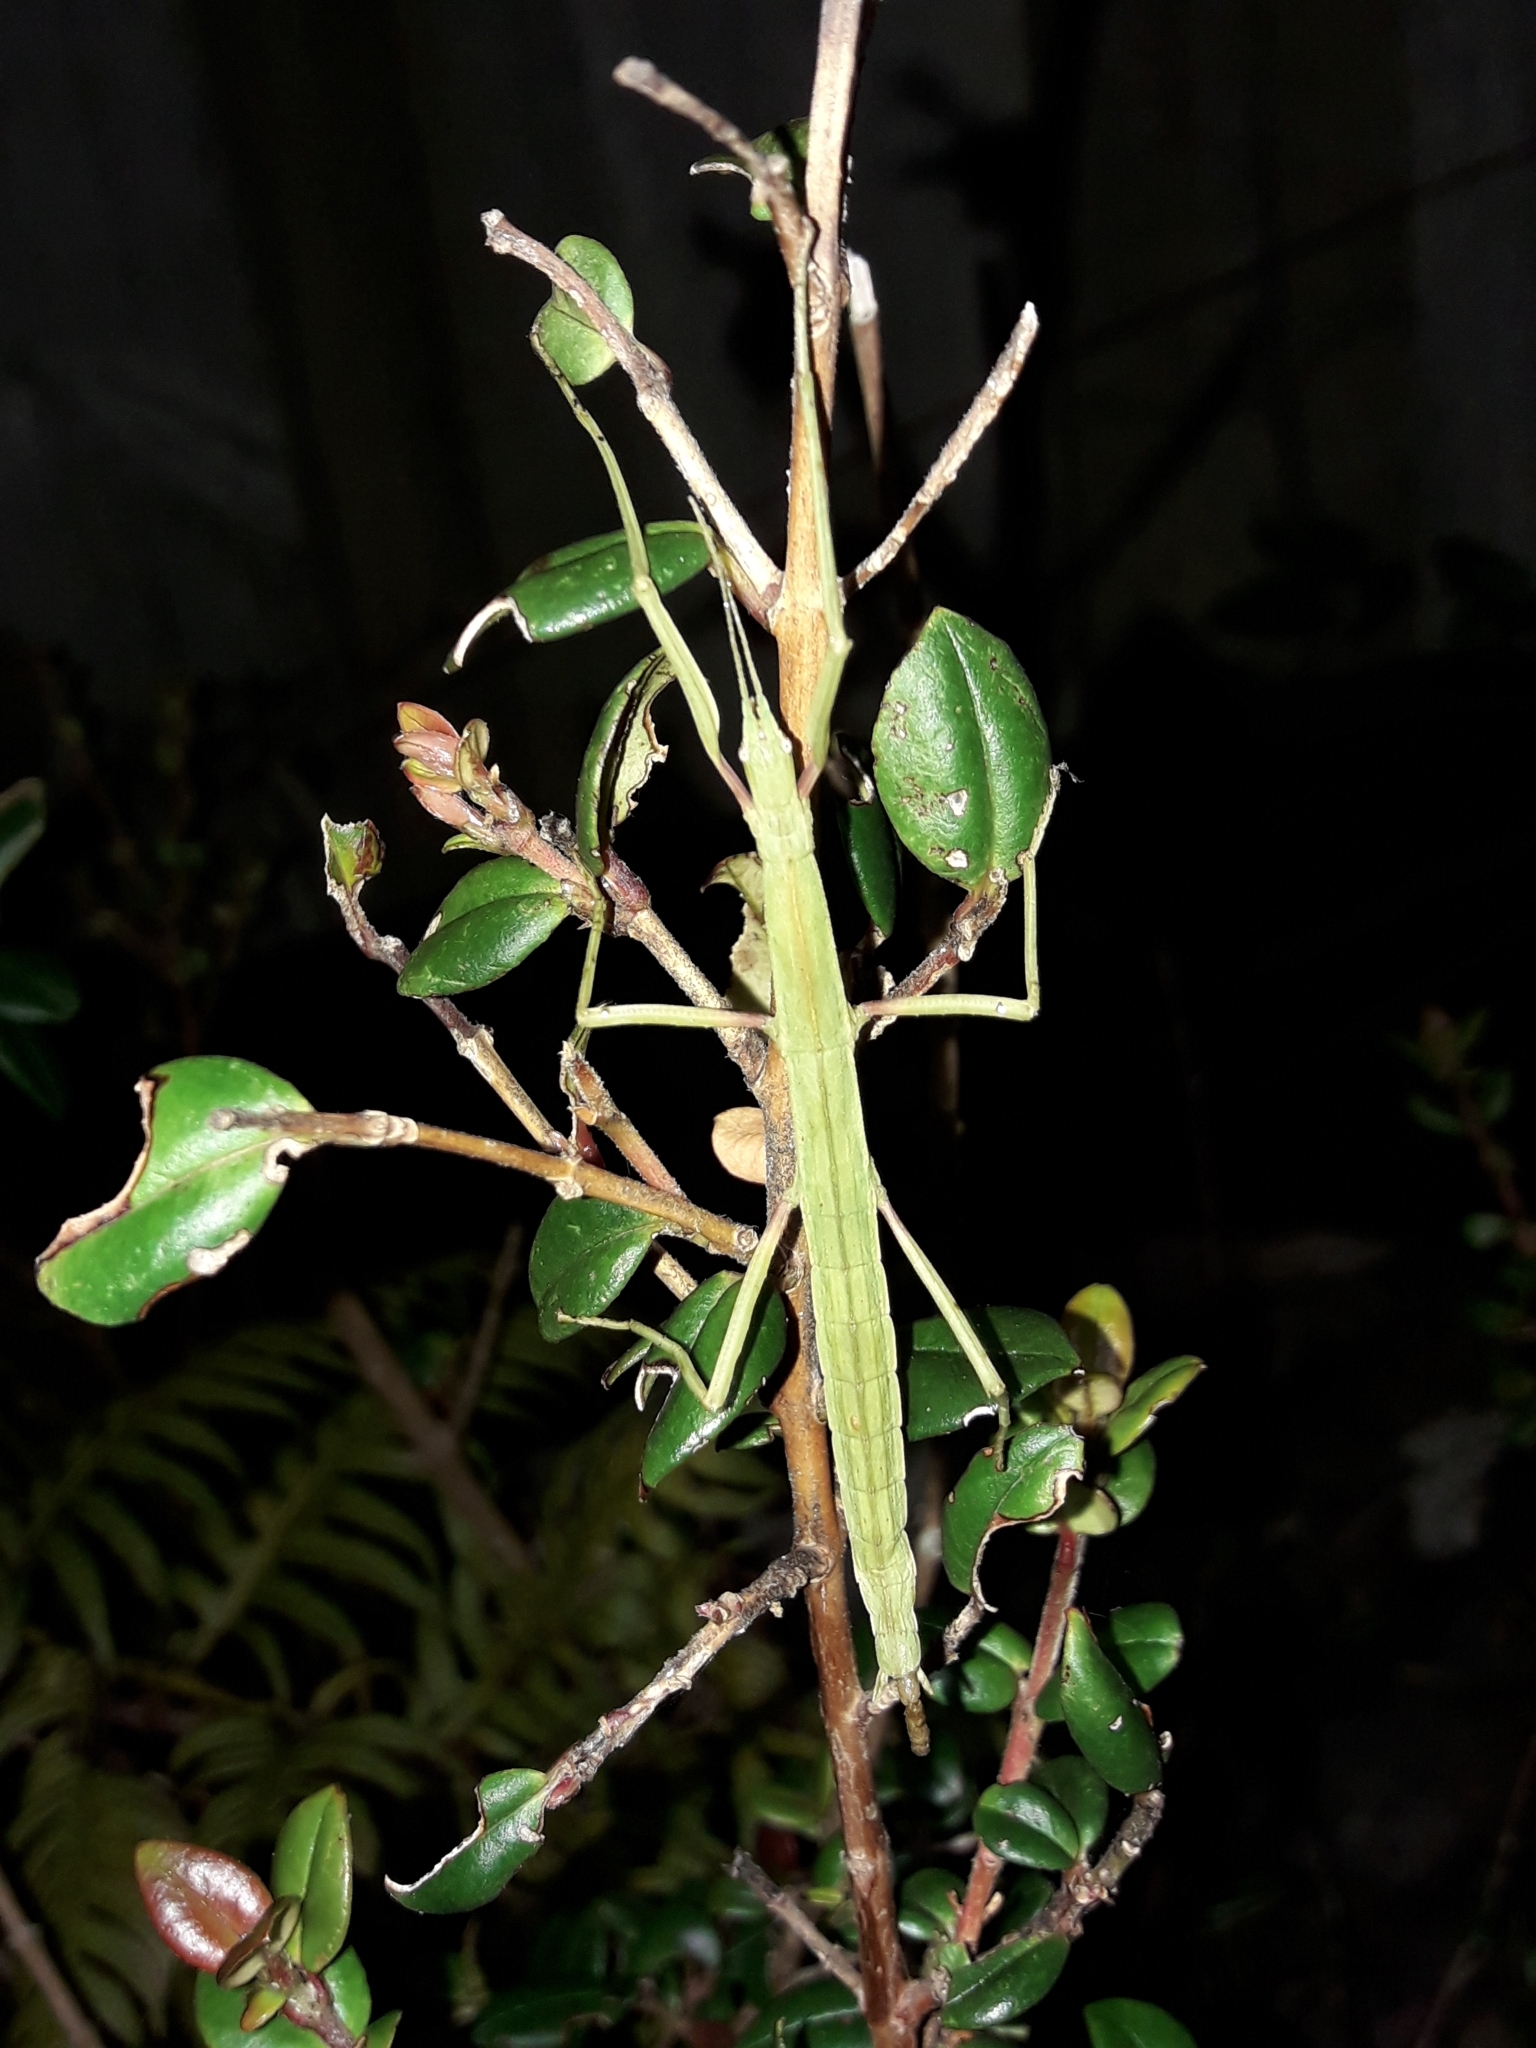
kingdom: Animalia
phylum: Arthropoda
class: Insecta
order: Phasmida
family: Phasmatidae
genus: Tectarchus
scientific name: Tectarchus huttoni
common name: The common ridge-backed stick insect
